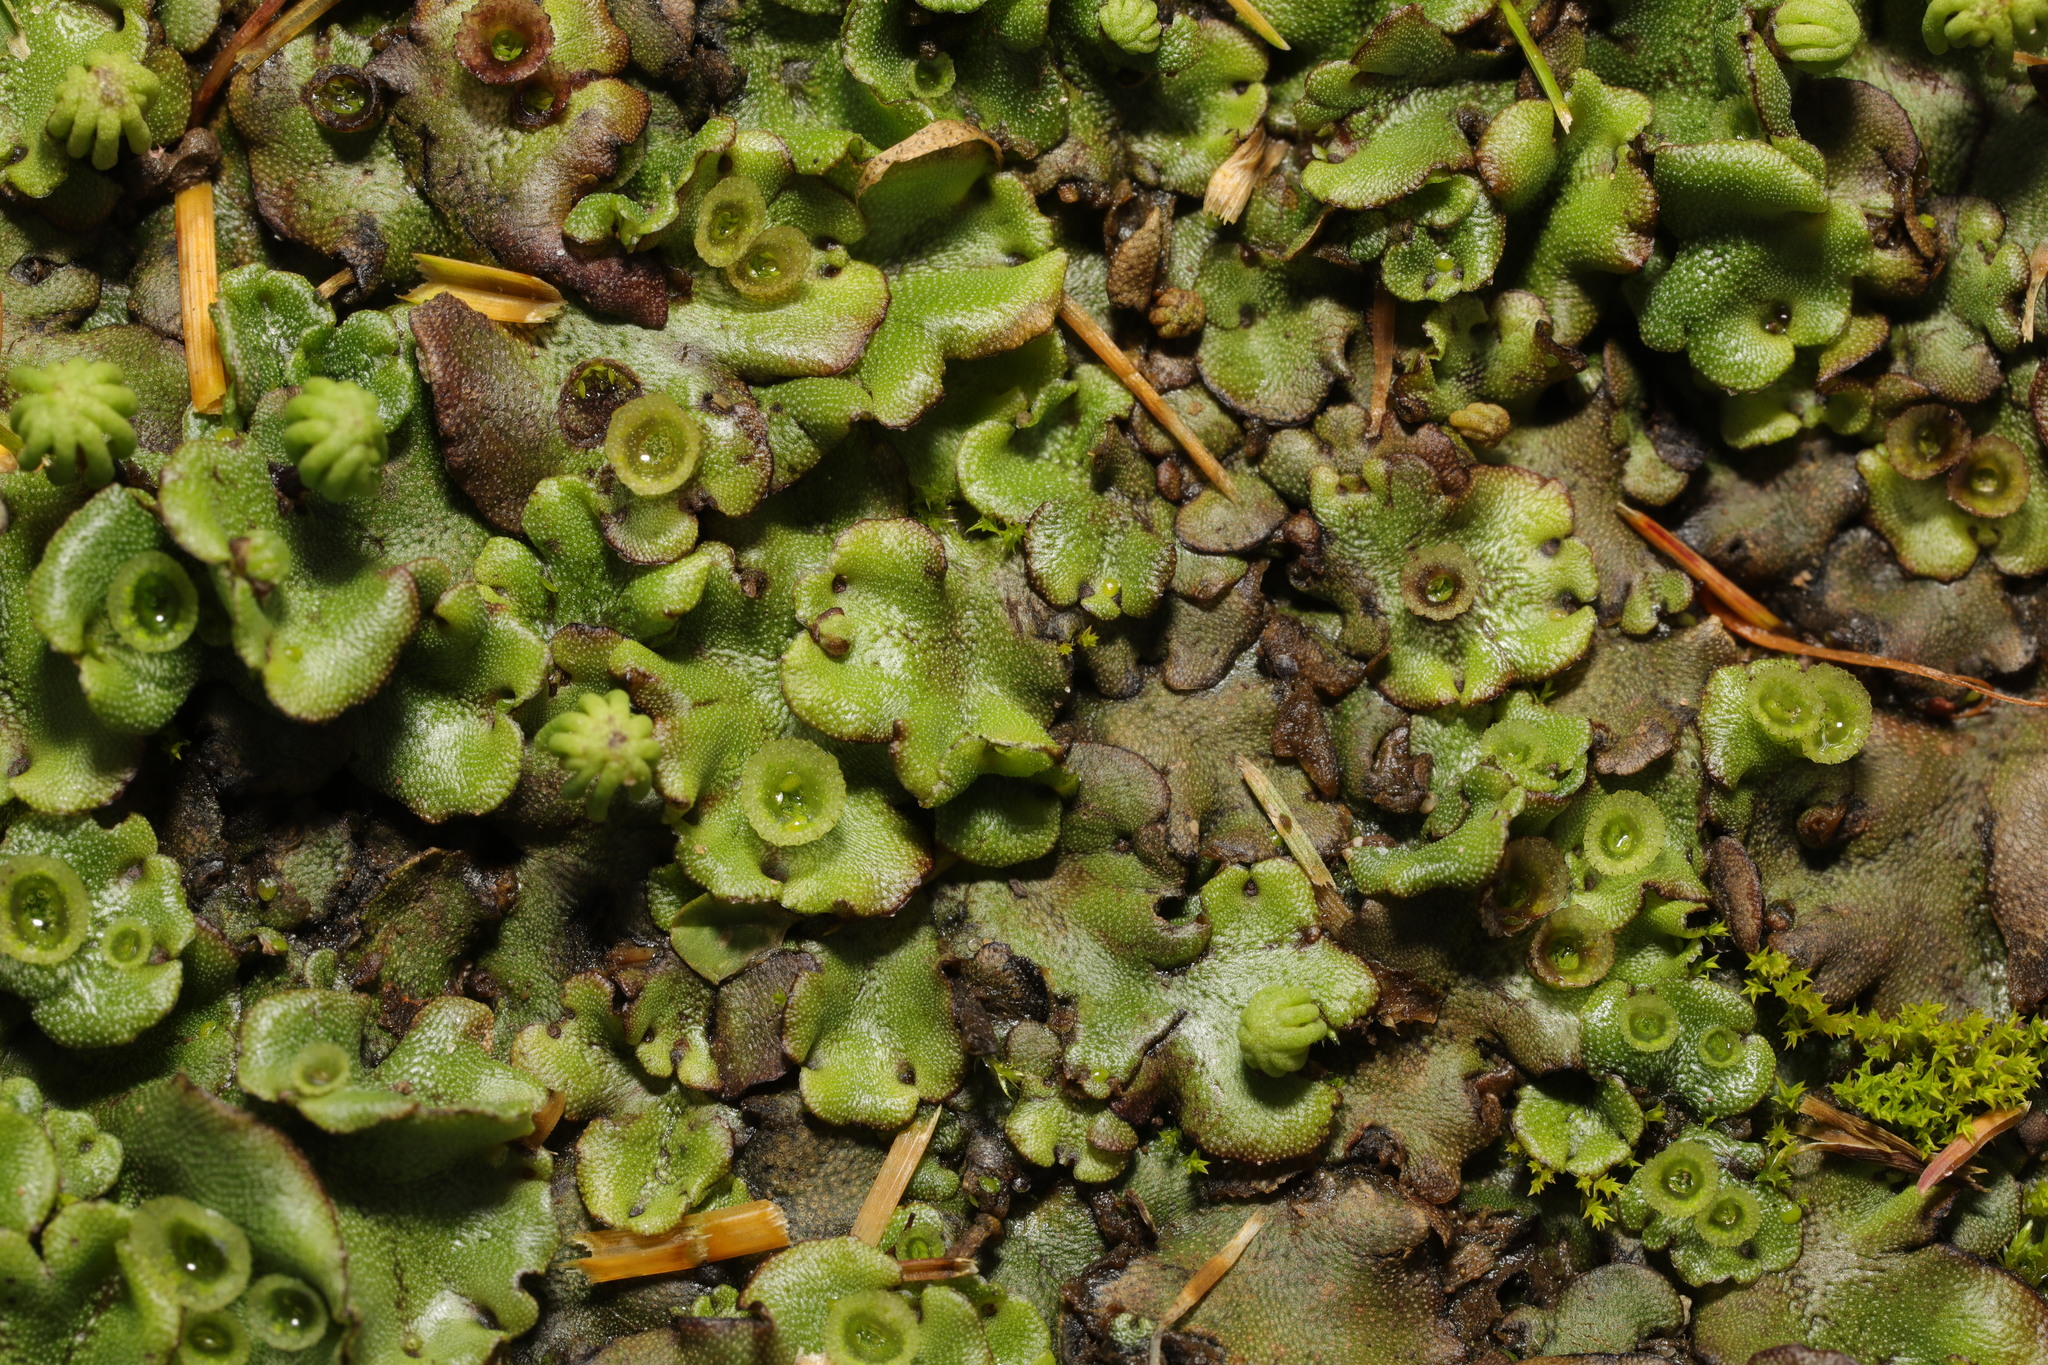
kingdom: Plantae
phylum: Marchantiophyta
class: Marchantiopsida
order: Marchantiales
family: Marchantiaceae
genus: Marchantia
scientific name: Marchantia polymorpha
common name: Common liverwort
